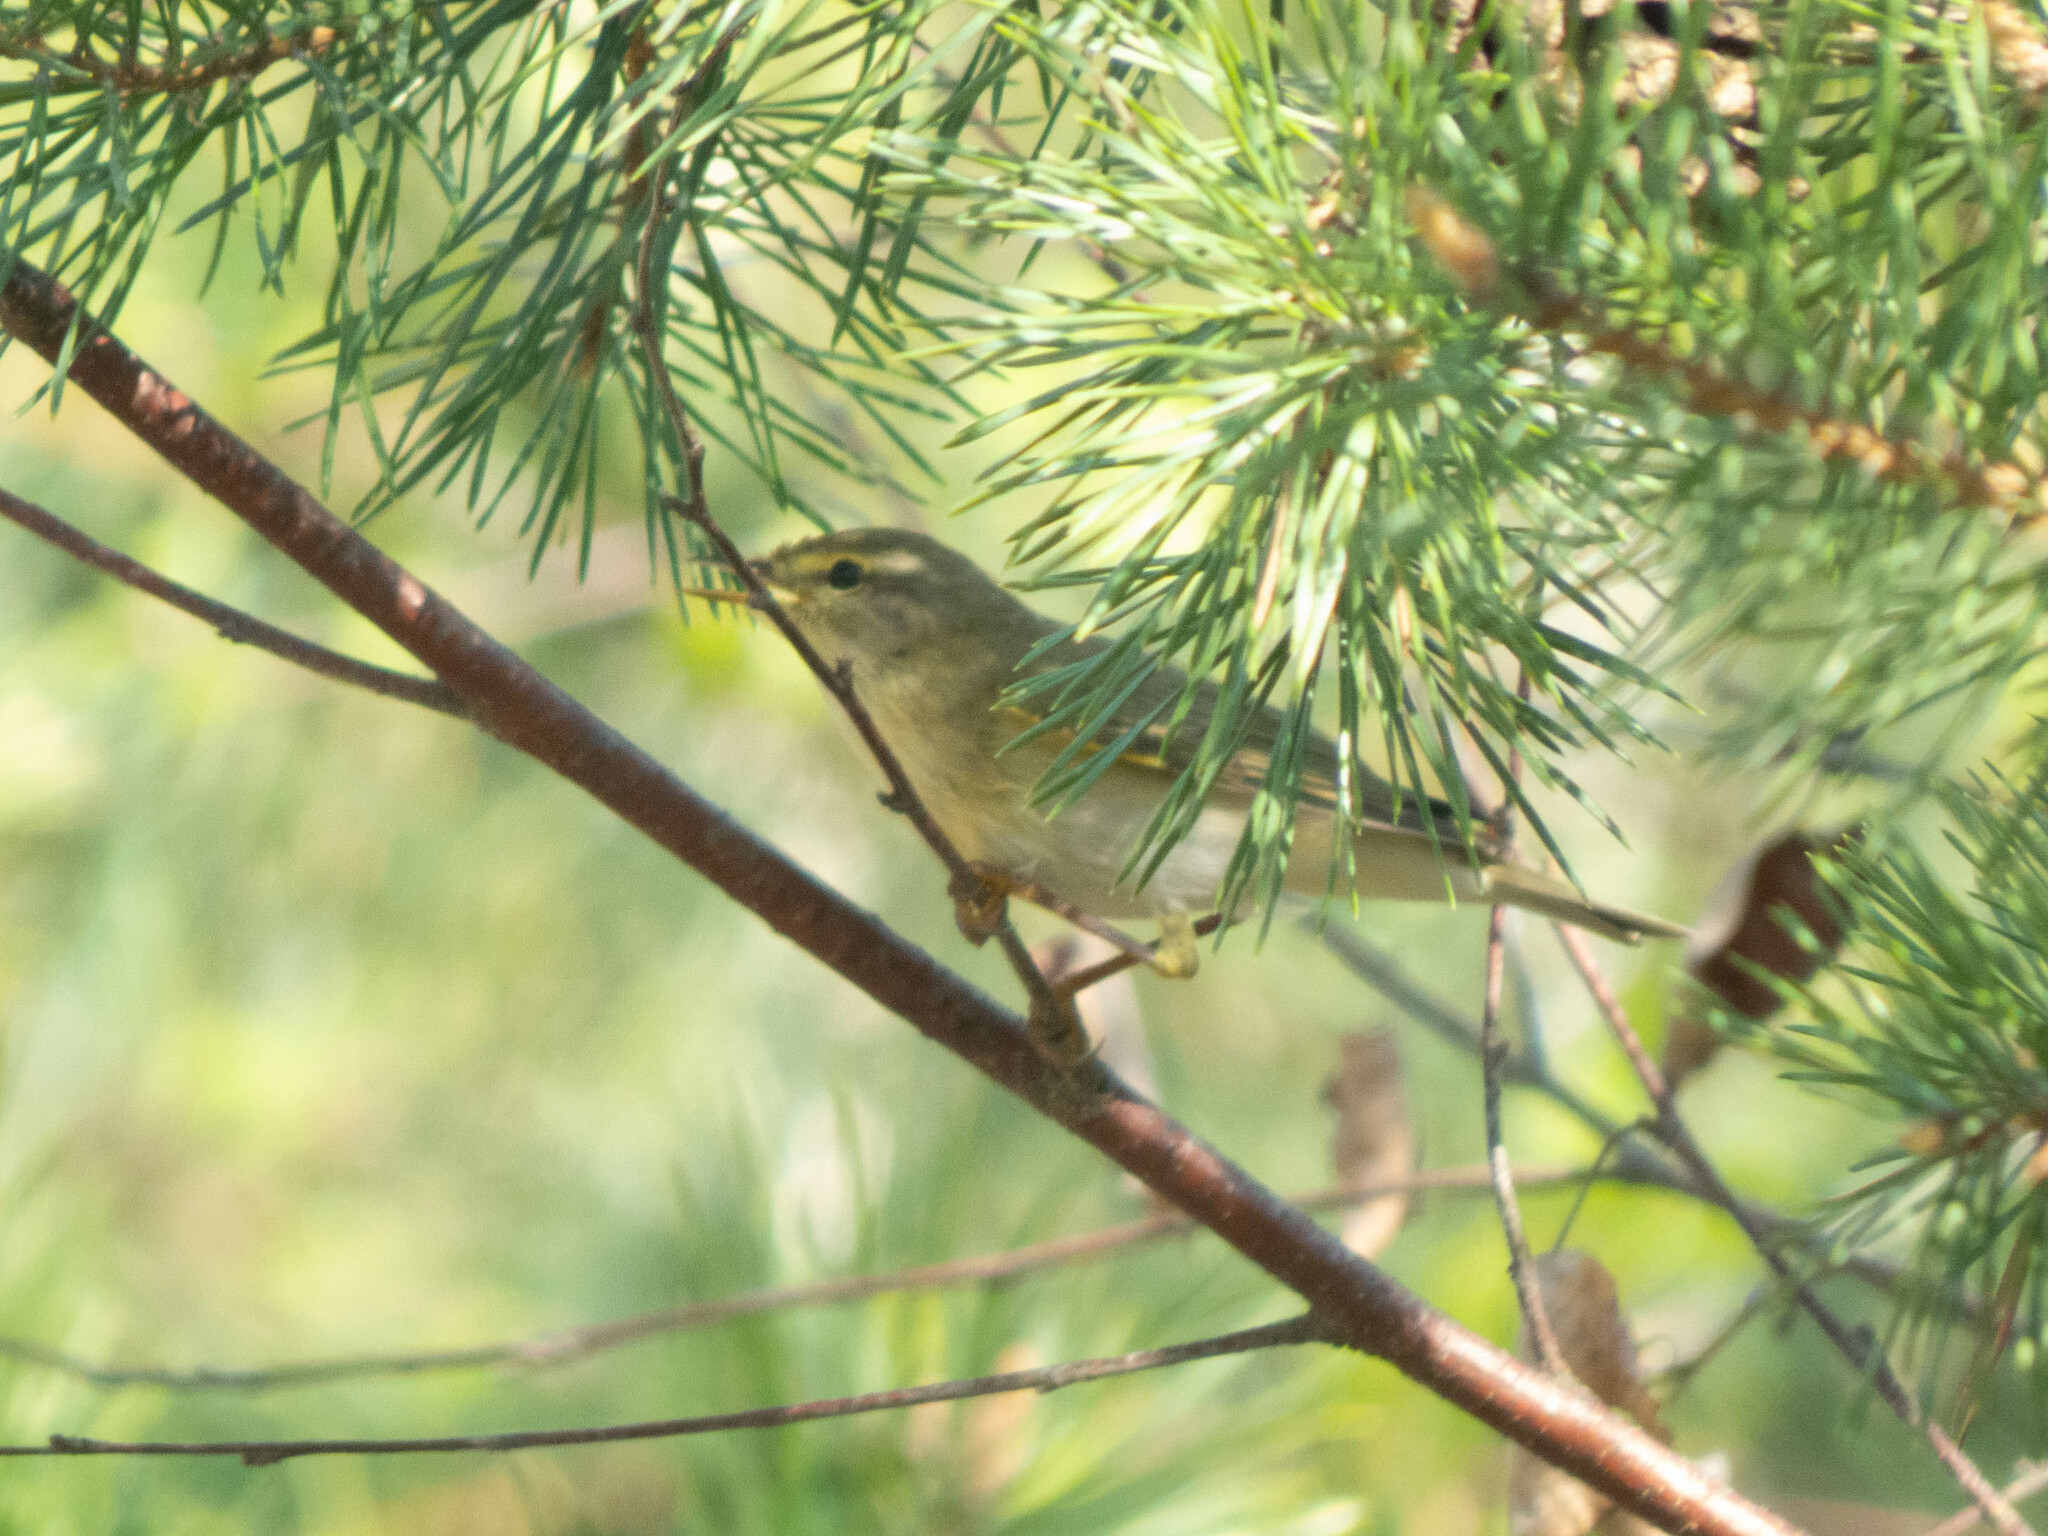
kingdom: Animalia
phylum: Chordata
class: Aves
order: Passeriformes
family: Phylloscopidae
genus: Phylloscopus
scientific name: Phylloscopus trochilus
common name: Willow warbler
